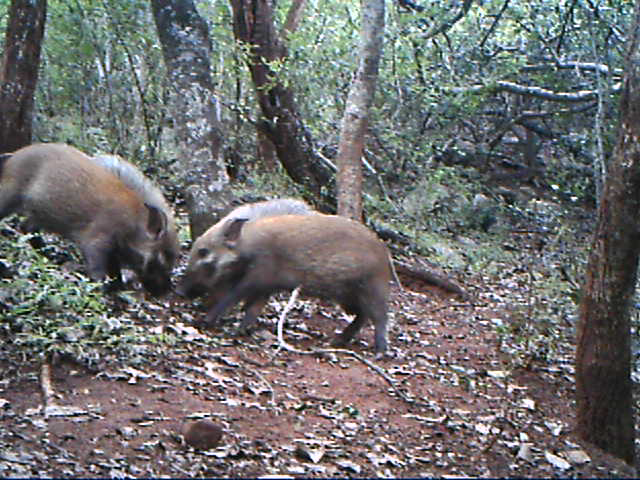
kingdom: Animalia
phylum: Chordata
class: Mammalia
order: Artiodactyla
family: Suidae
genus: Potamochoerus
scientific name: Potamochoerus larvatus
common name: Bushpig
